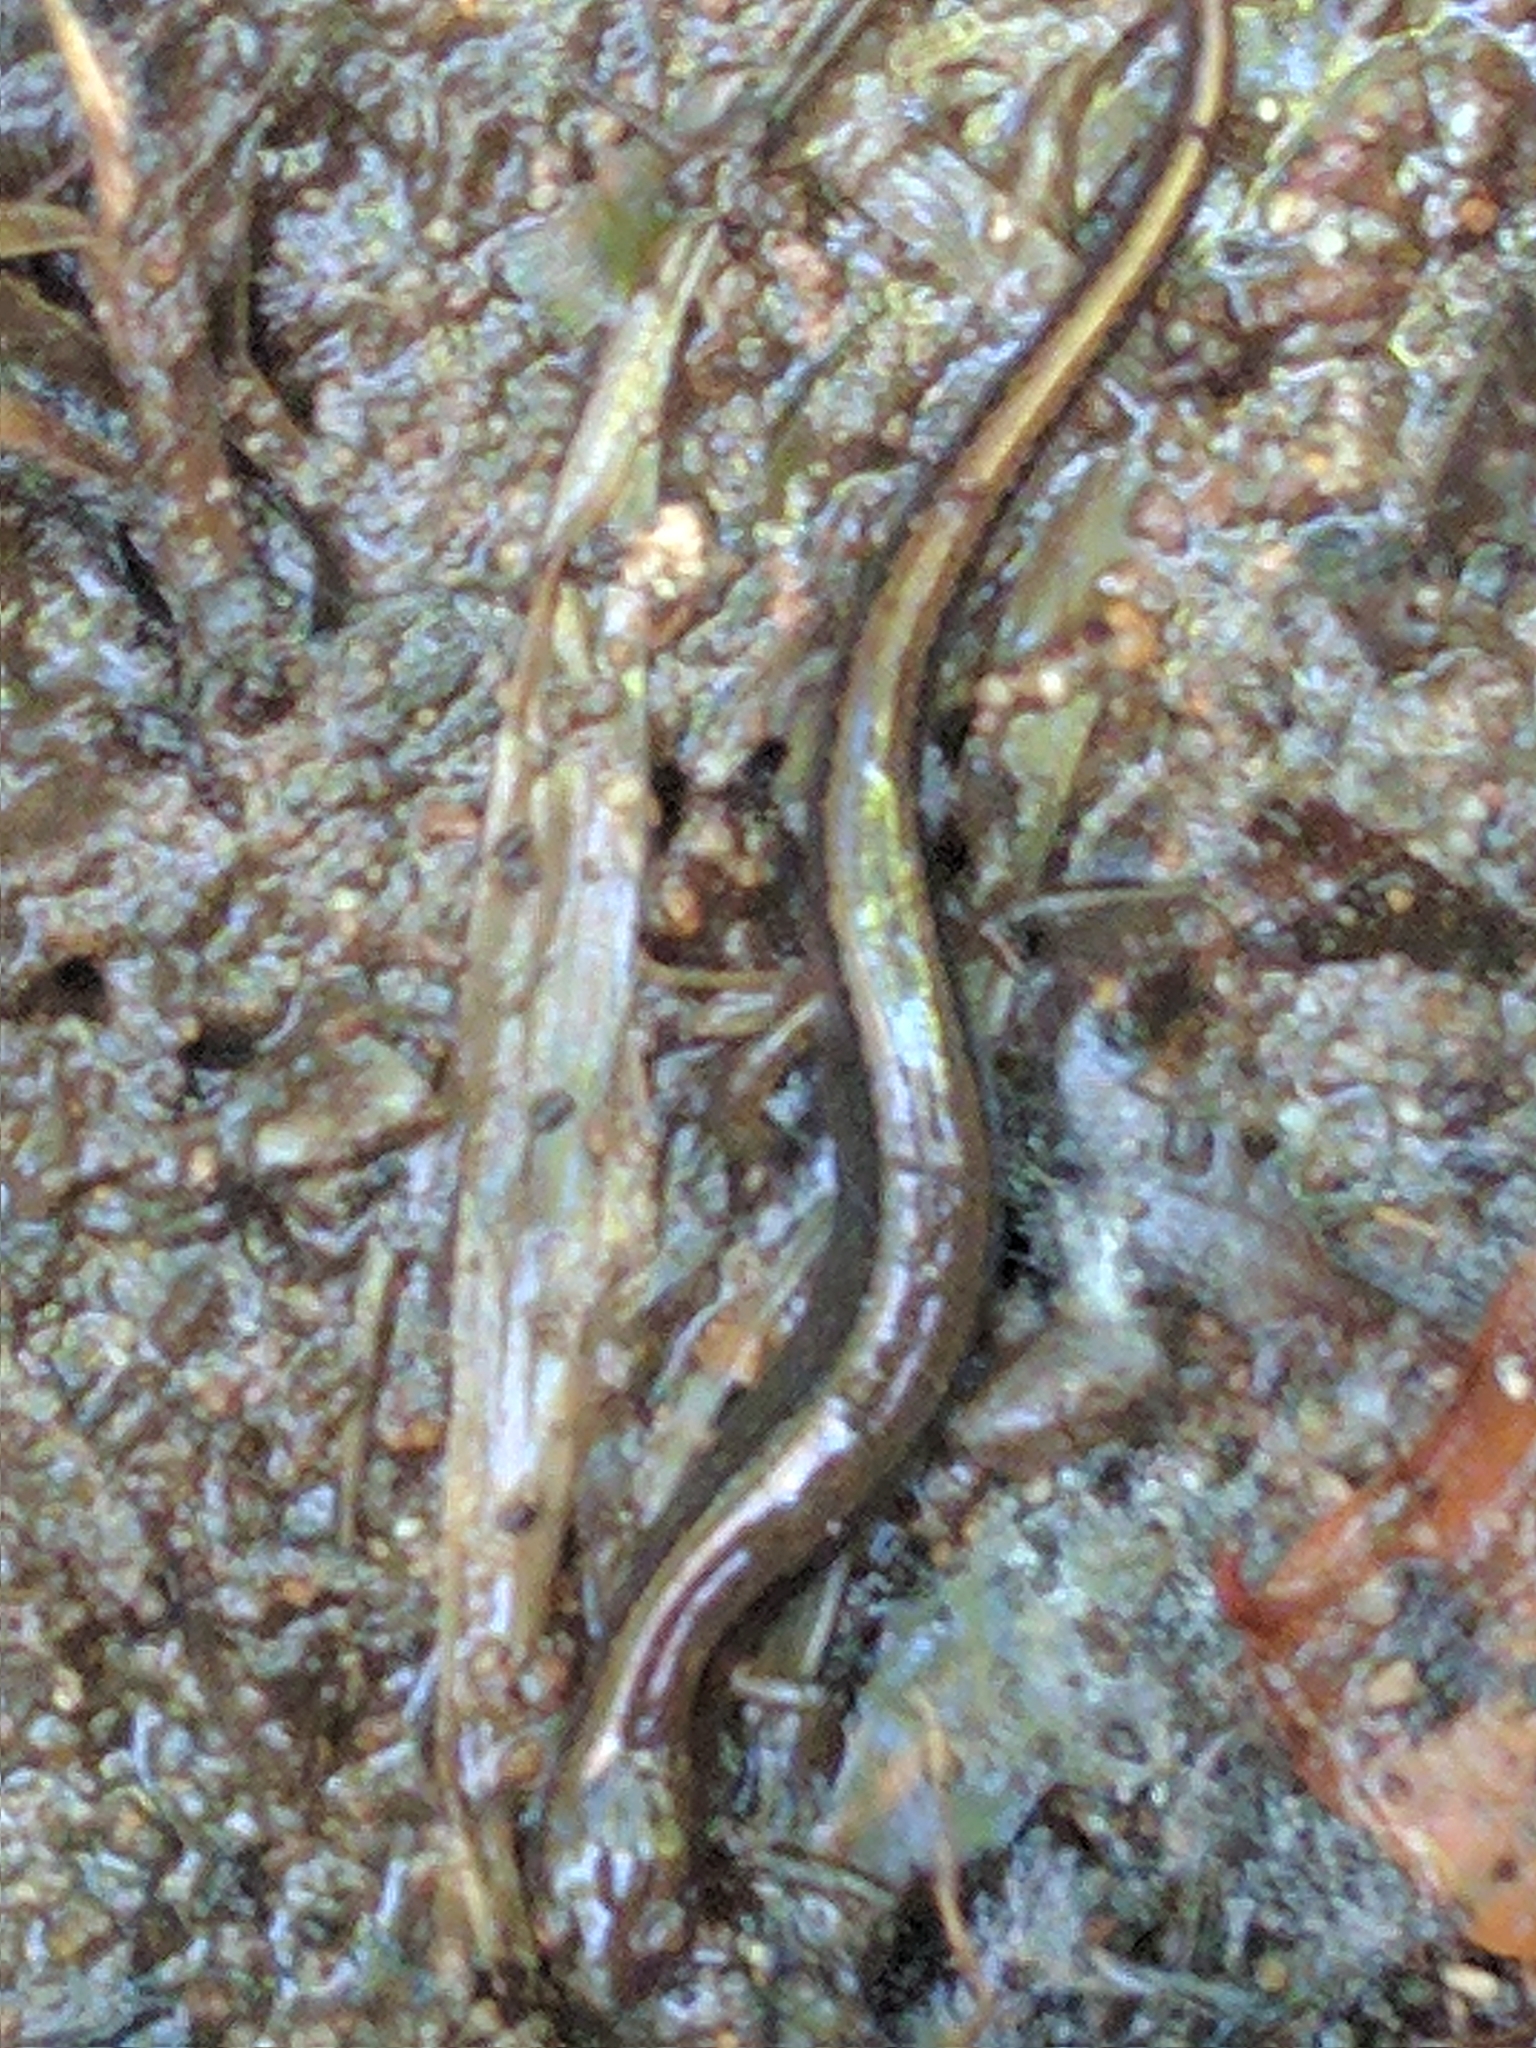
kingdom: Animalia
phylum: Chordata
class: Amphibia
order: Caudata
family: Plethodontidae
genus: Eurycea
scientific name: Eurycea bislineata
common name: Northern two-lined salamander
